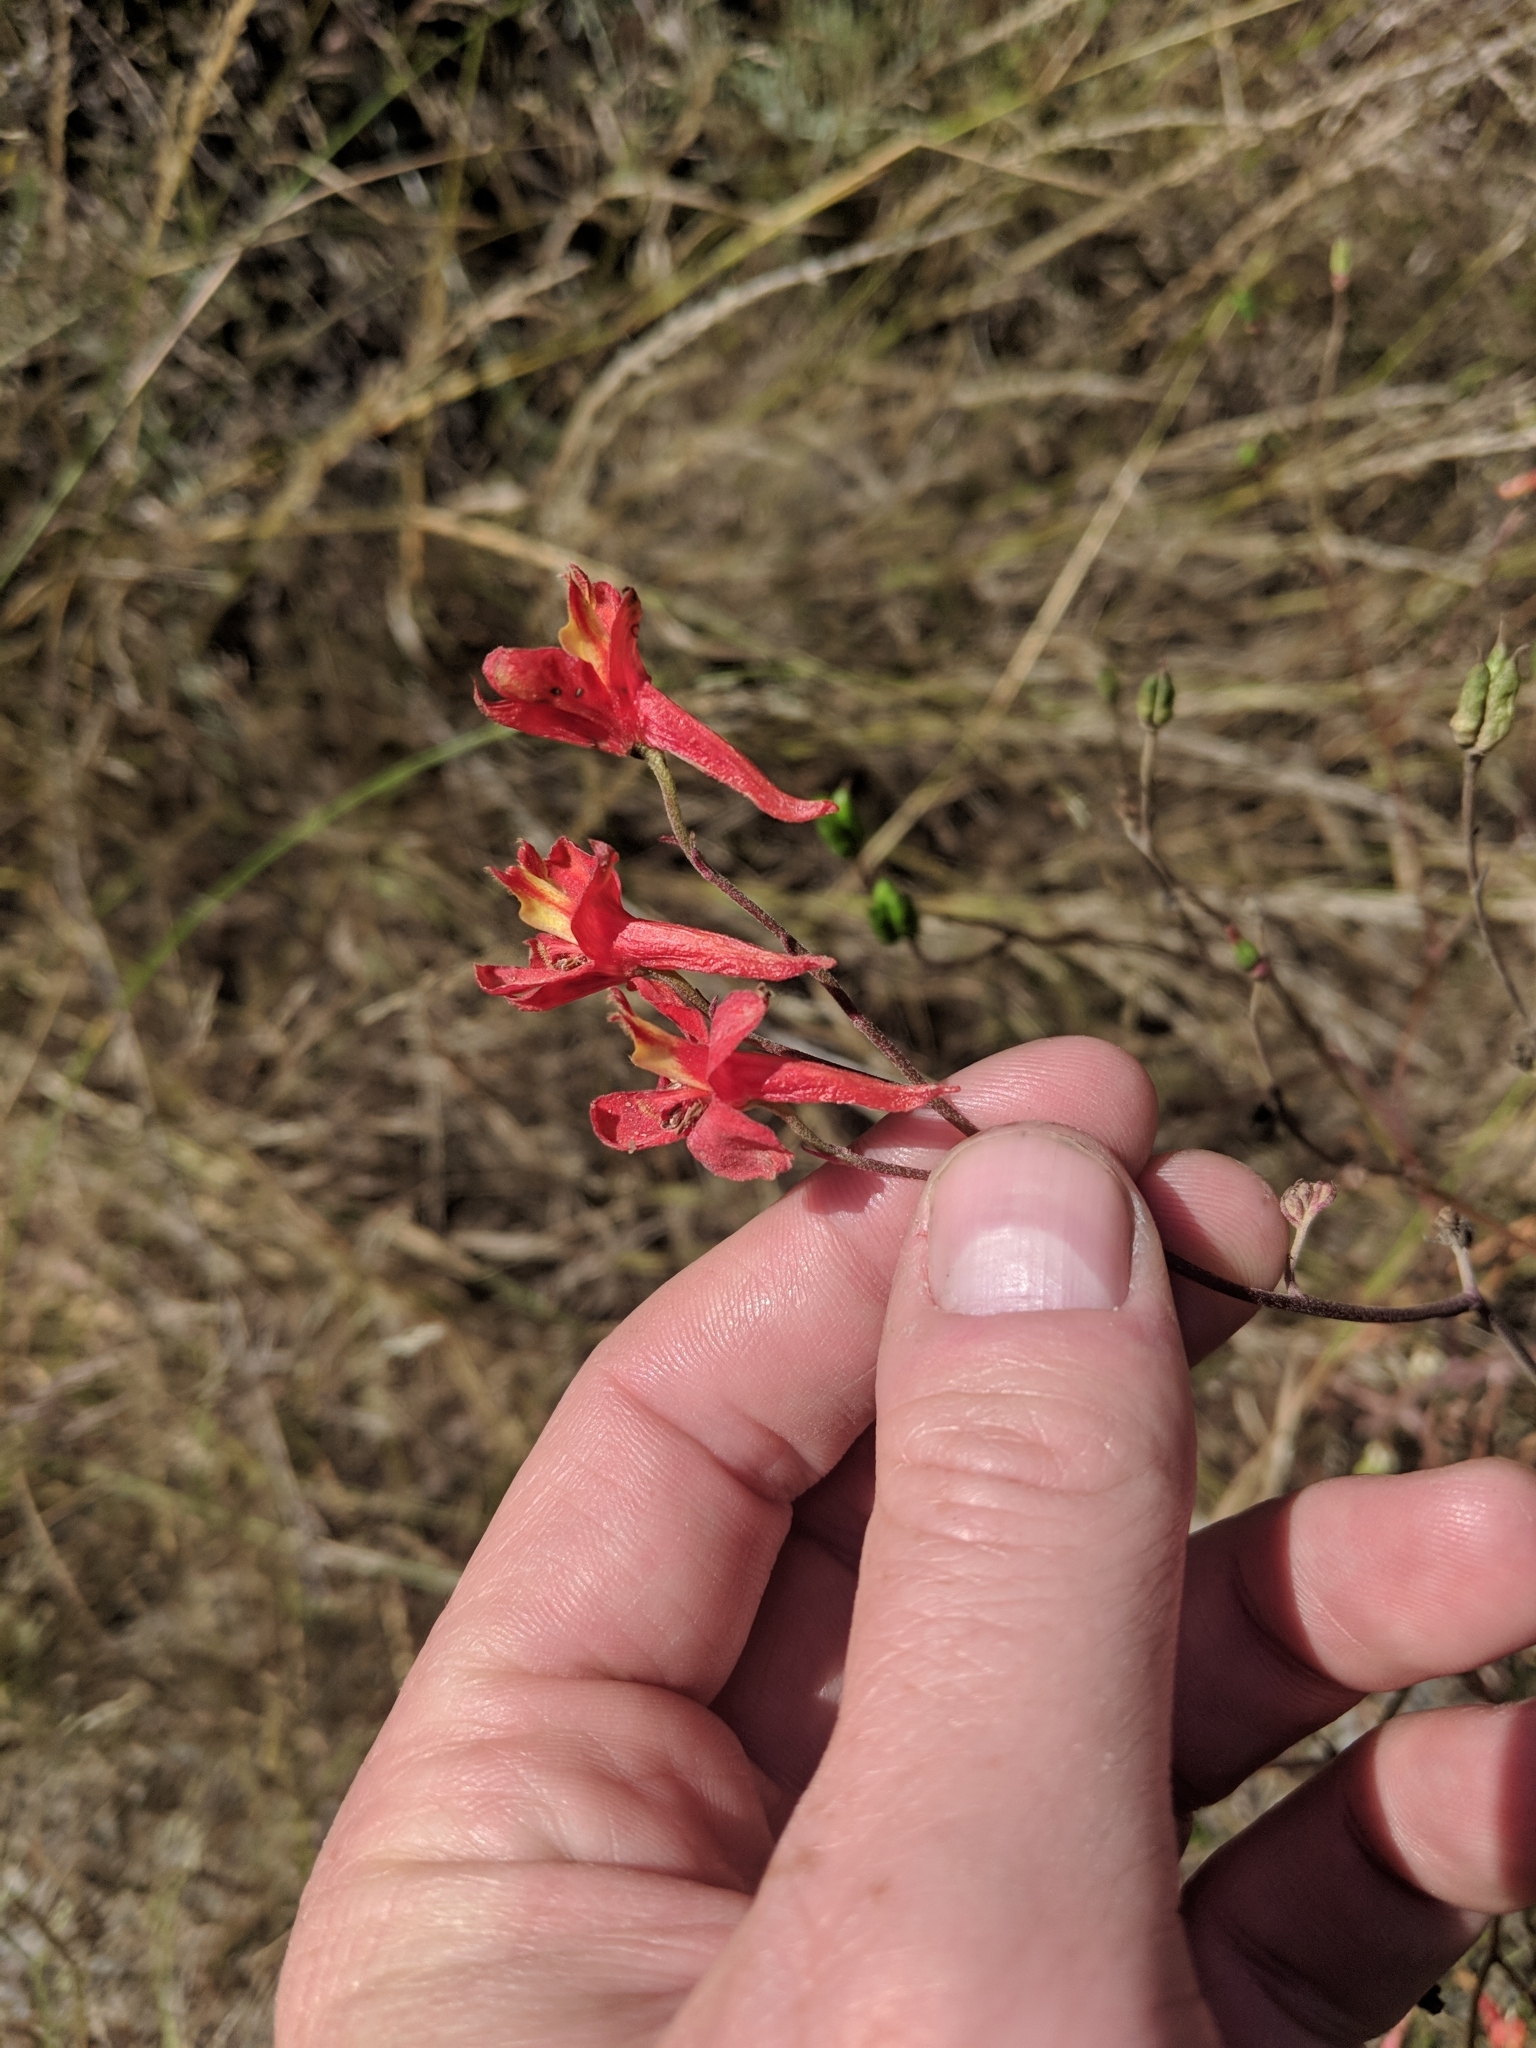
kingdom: Plantae
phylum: Tracheophyta
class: Magnoliopsida
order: Ranunculales
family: Ranunculaceae
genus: Delphinium
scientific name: Delphinium cardinale
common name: Scarlet larkspur
